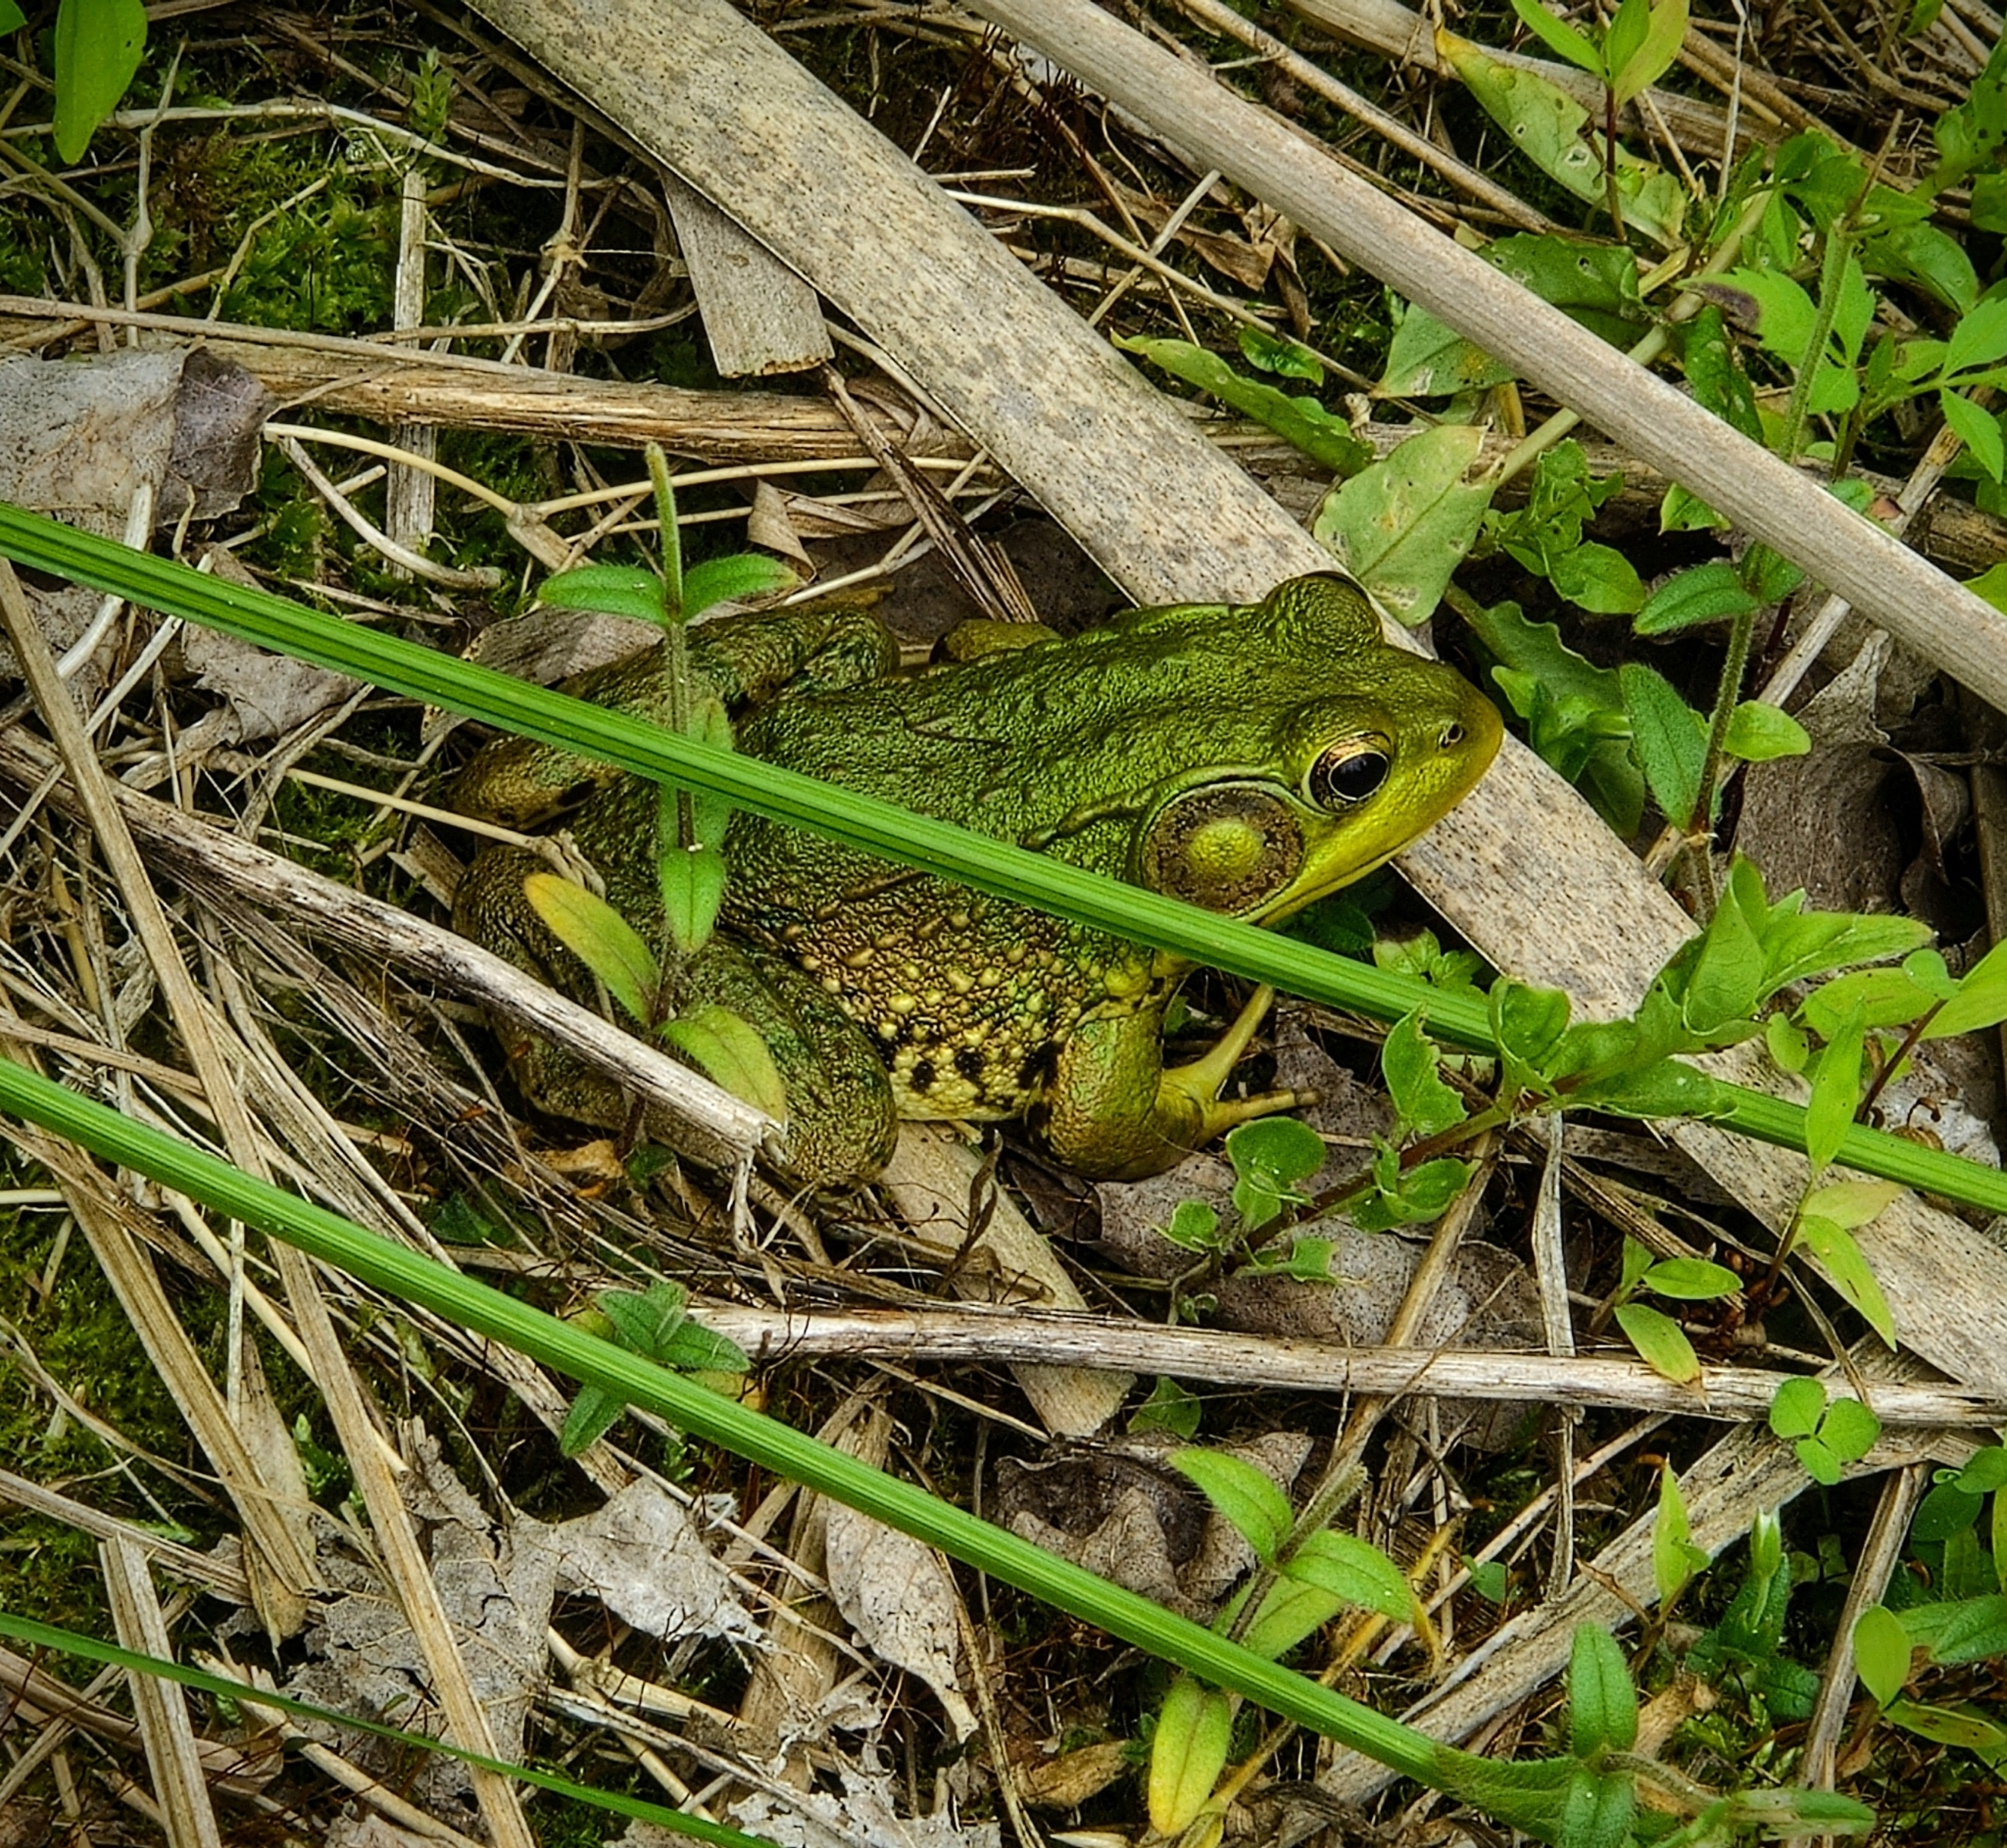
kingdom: Animalia
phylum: Chordata
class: Amphibia
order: Anura
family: Ranidae
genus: Lithobates
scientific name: Lithobates clamitans
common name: Green frog
